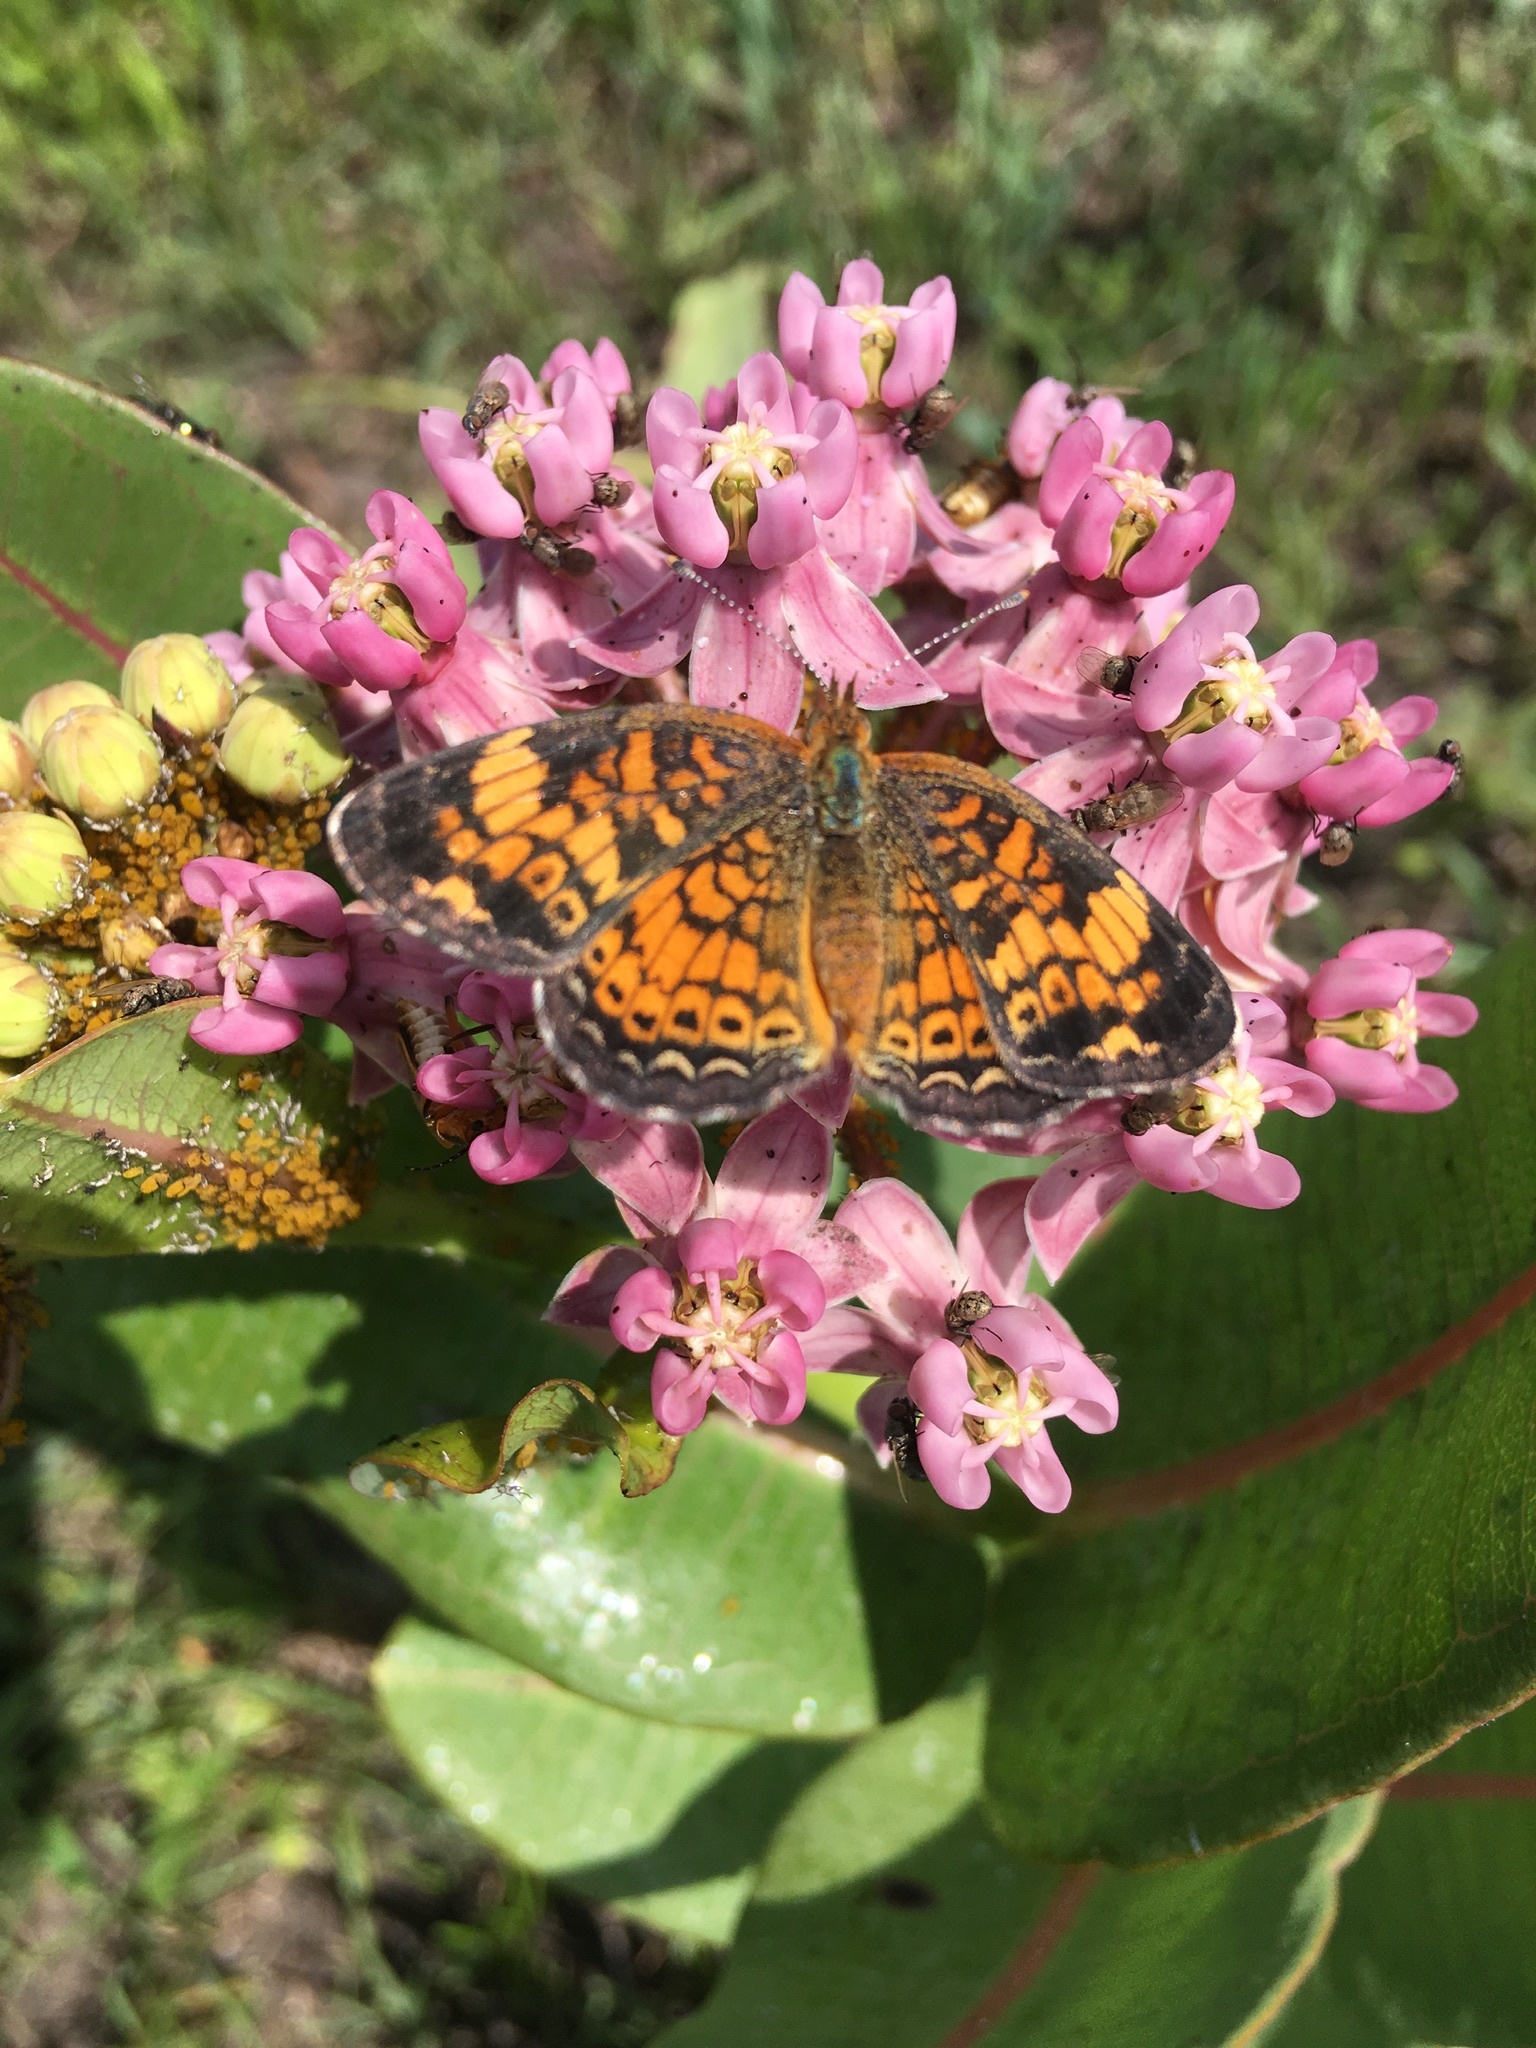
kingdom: Animalia
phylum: Arthropoda
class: Insecta
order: Lepidoptera
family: Nymphalidae
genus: Phyciodes
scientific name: Phyciodes tharos
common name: Pearl crescent
